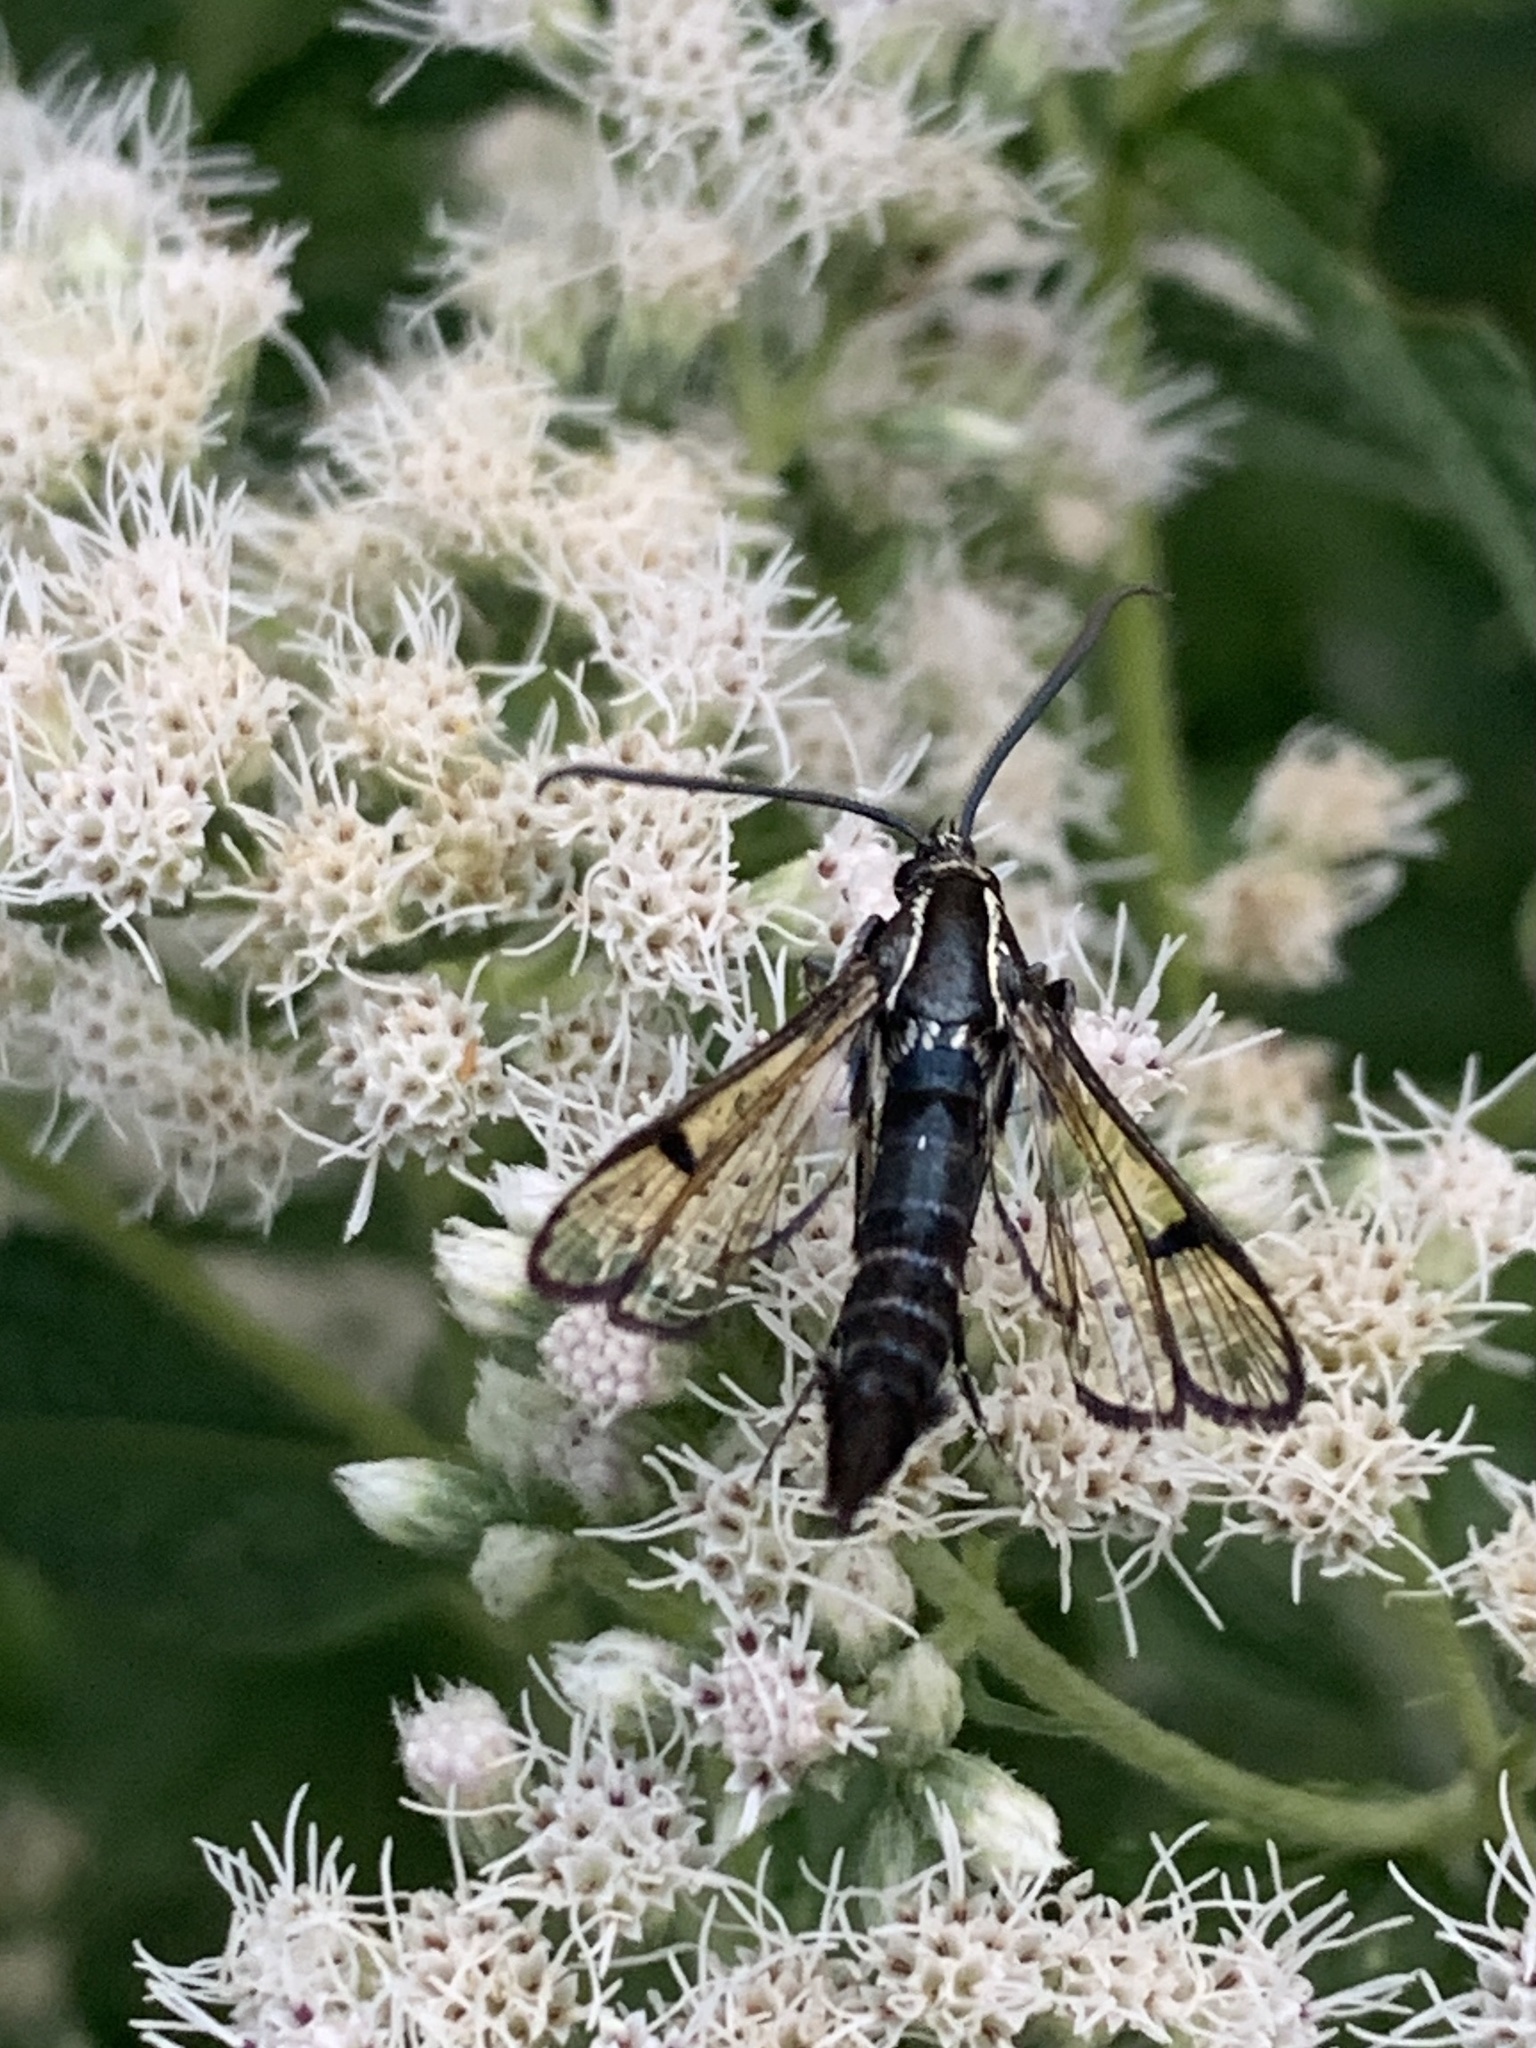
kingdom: Animalia
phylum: Arthropoda
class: Insecta
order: Lepidoptera
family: Sesiidae
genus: Synanthedon
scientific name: Synanthedon exitiosa
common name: Peachtree borer moth
